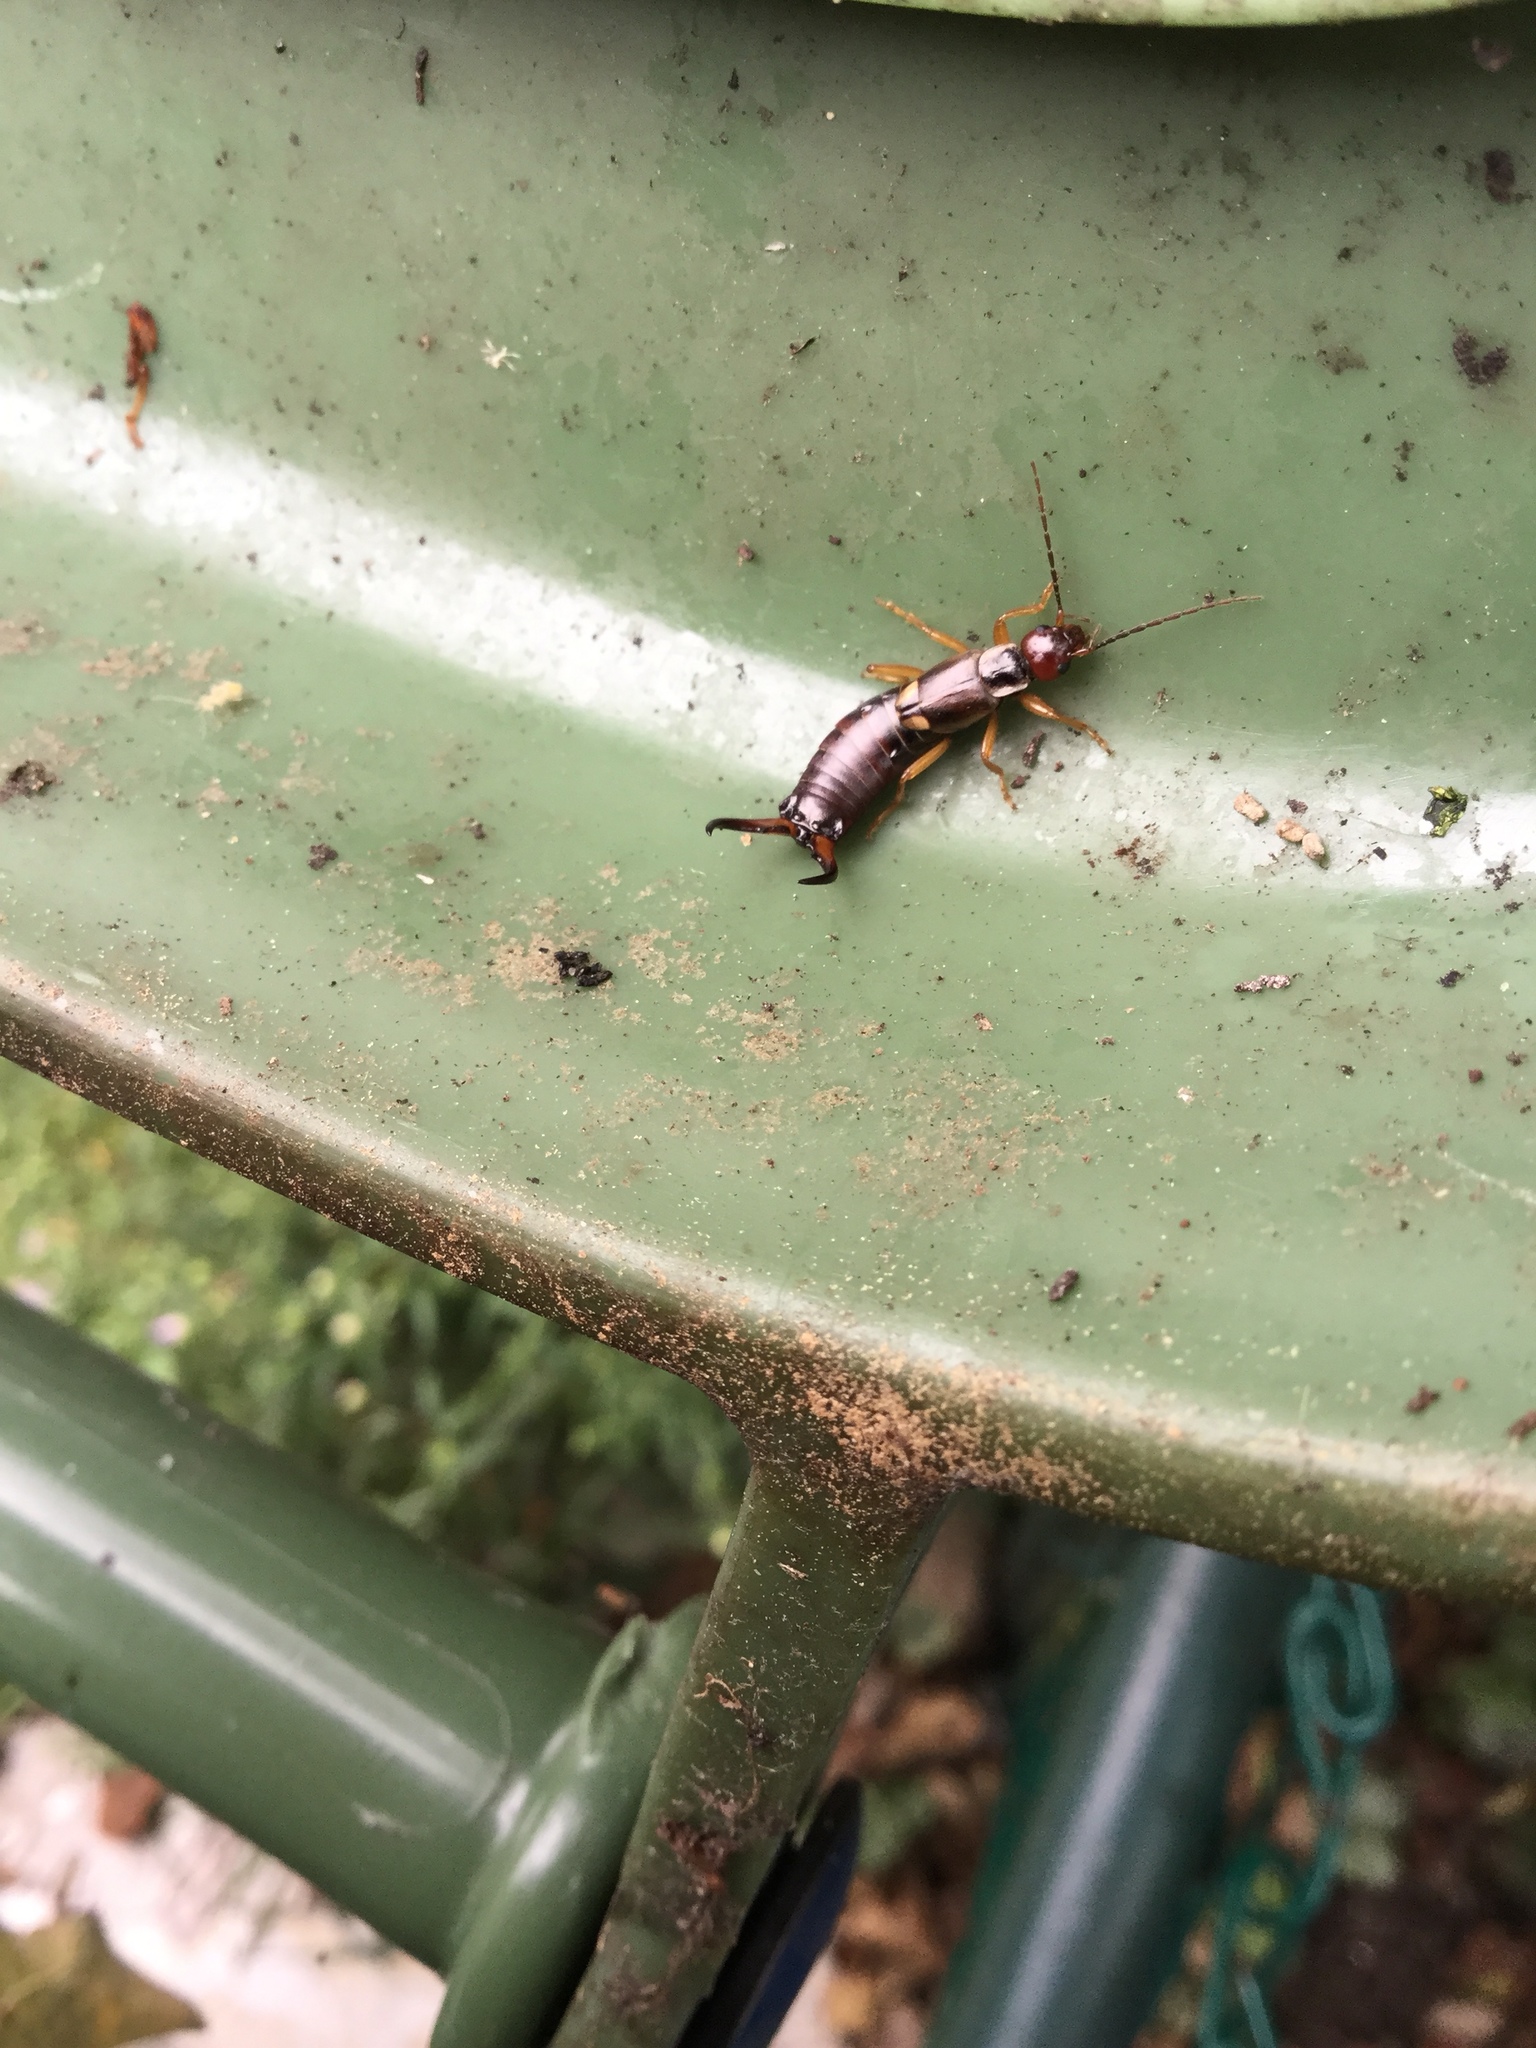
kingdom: Animalia
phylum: Arthropoda
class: Insecta
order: Dermaptera
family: Forficulidae
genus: Forficula
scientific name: Forficula
